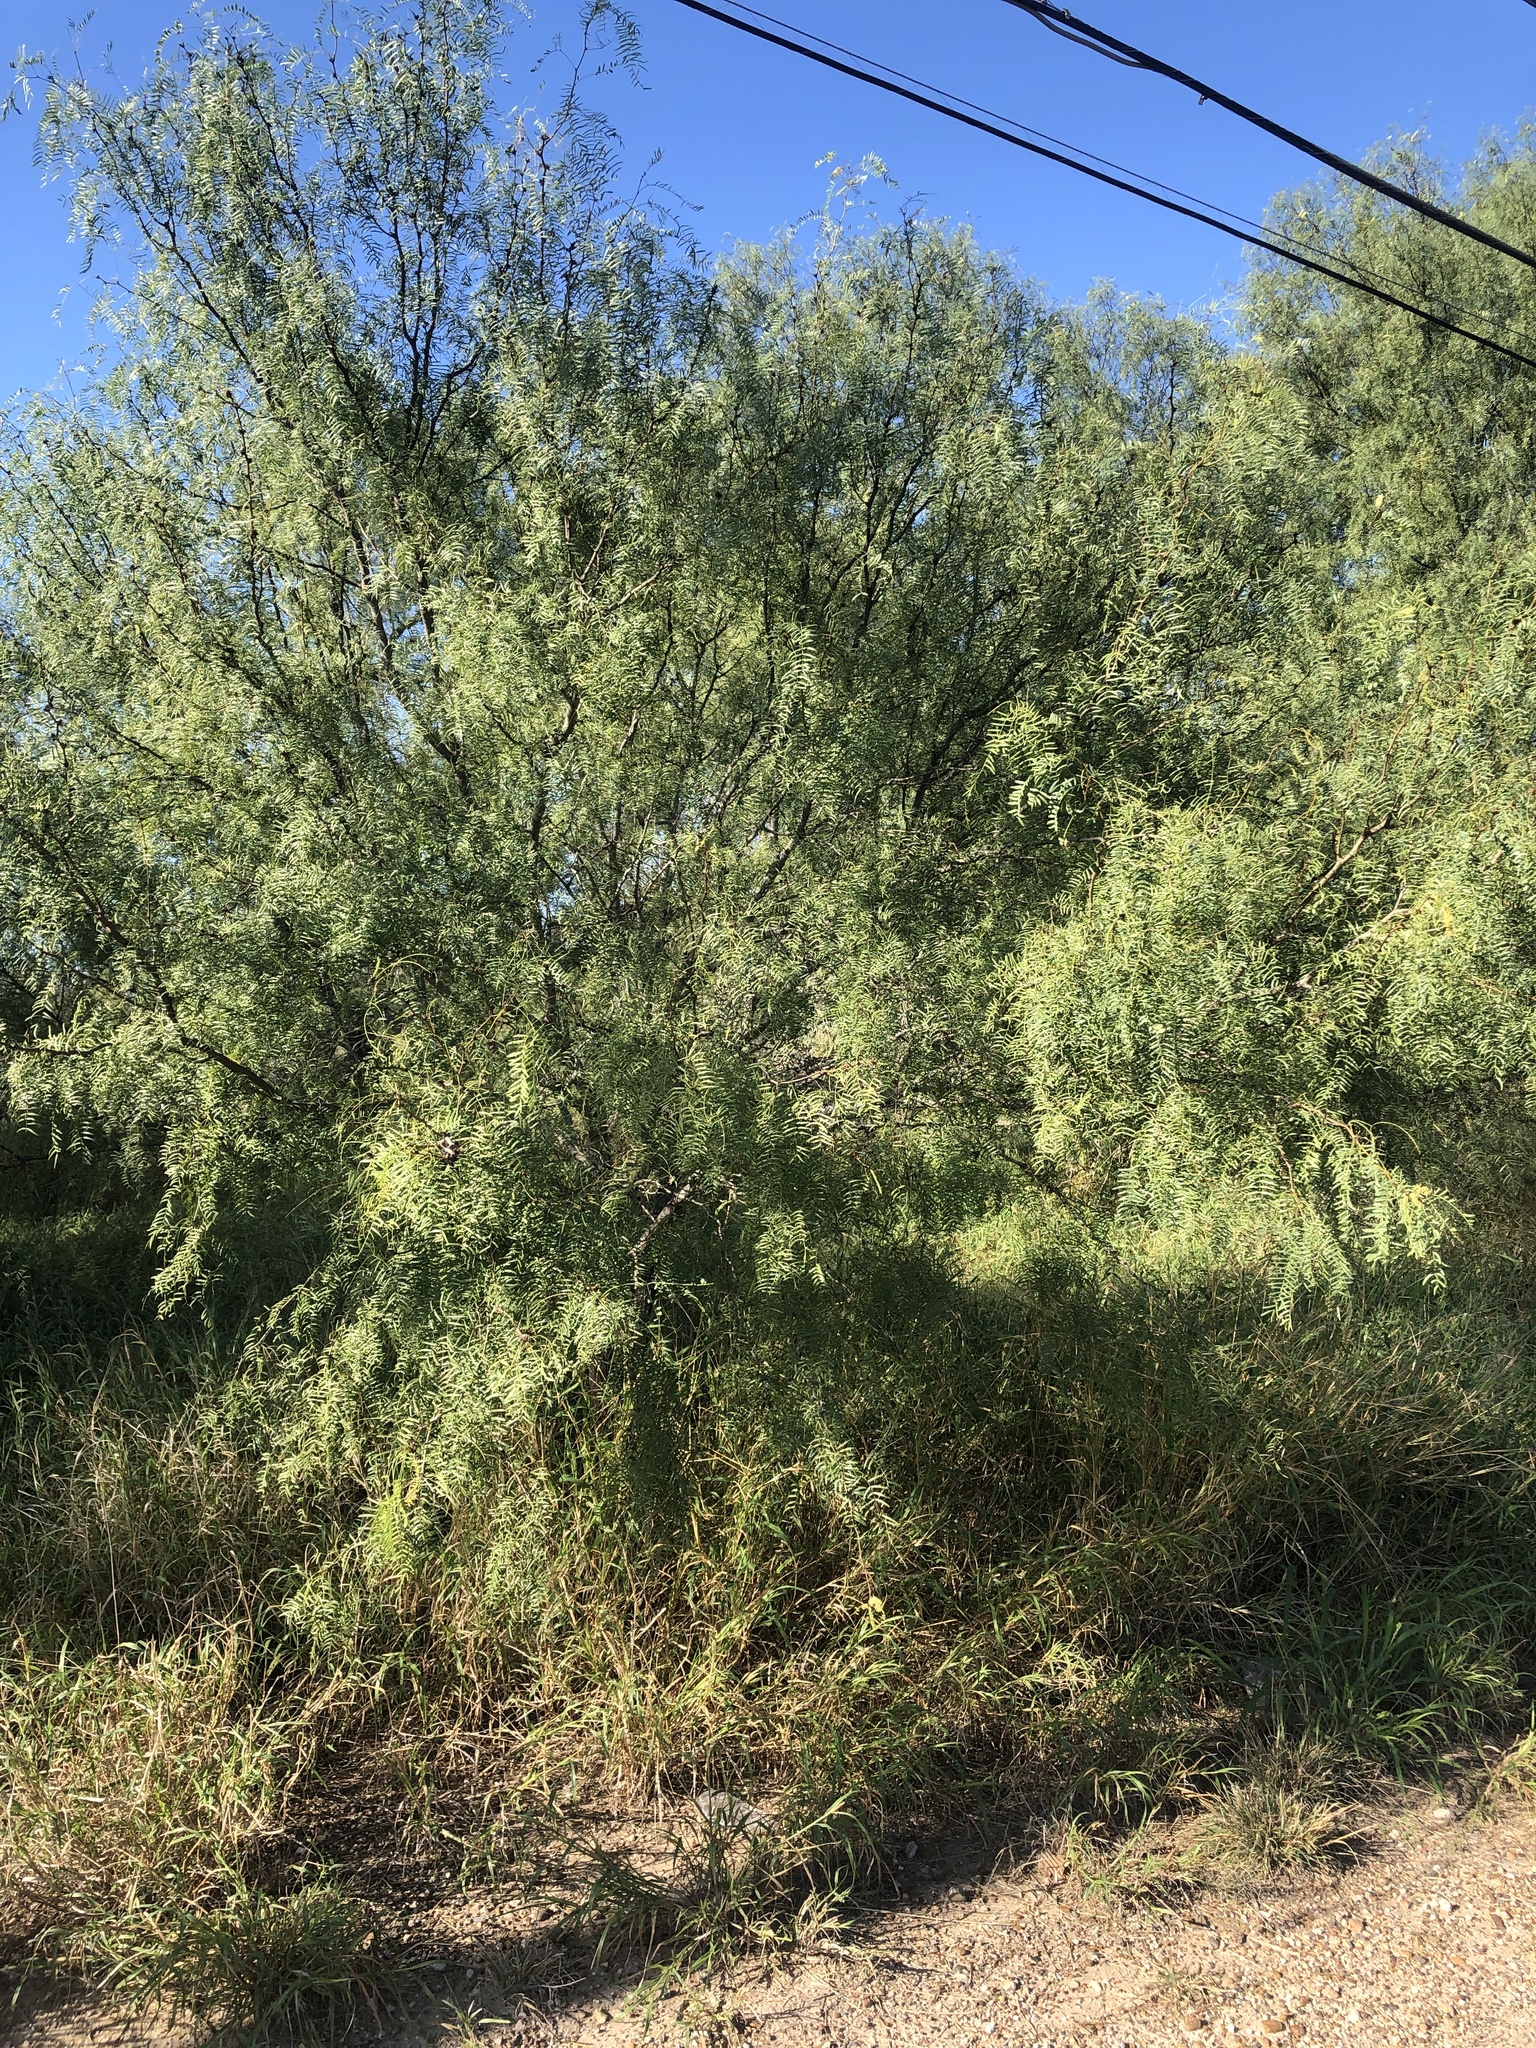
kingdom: Plantae
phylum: Tracheophyta
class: Magnoliopsida
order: Fabales
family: Fabaceae
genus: Prosopis
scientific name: Prosopis glandulosa
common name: Honey mesquite
